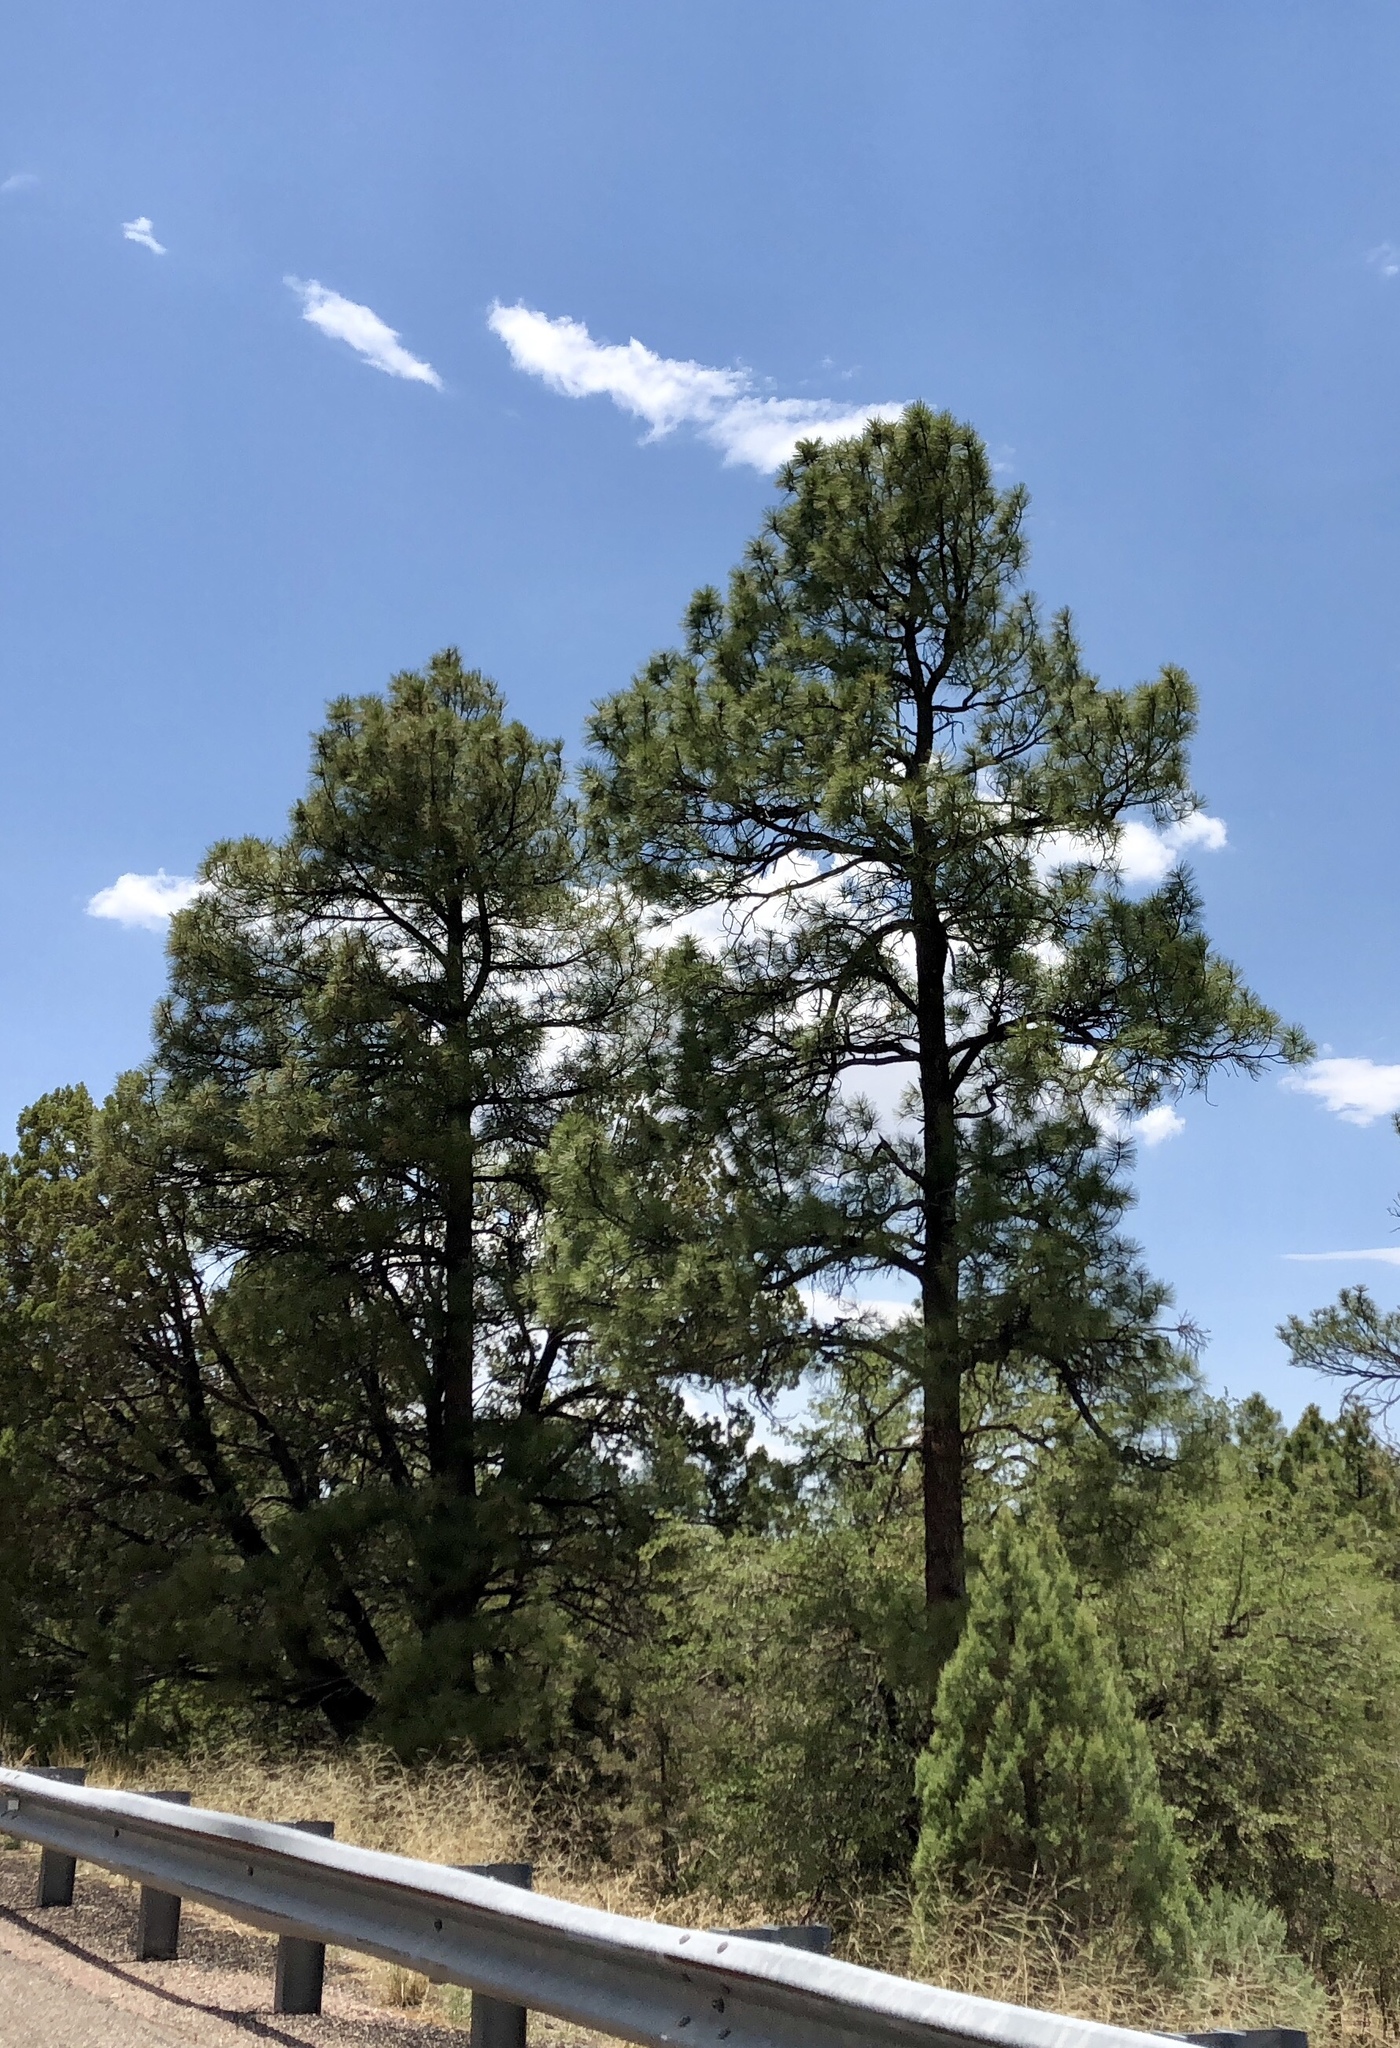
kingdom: Plantae
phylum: Tracheophyta
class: Pinopsida
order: Pinales
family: Pinaceae
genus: Pinus
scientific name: Pinus ponderosa
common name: Western yellow-pine
